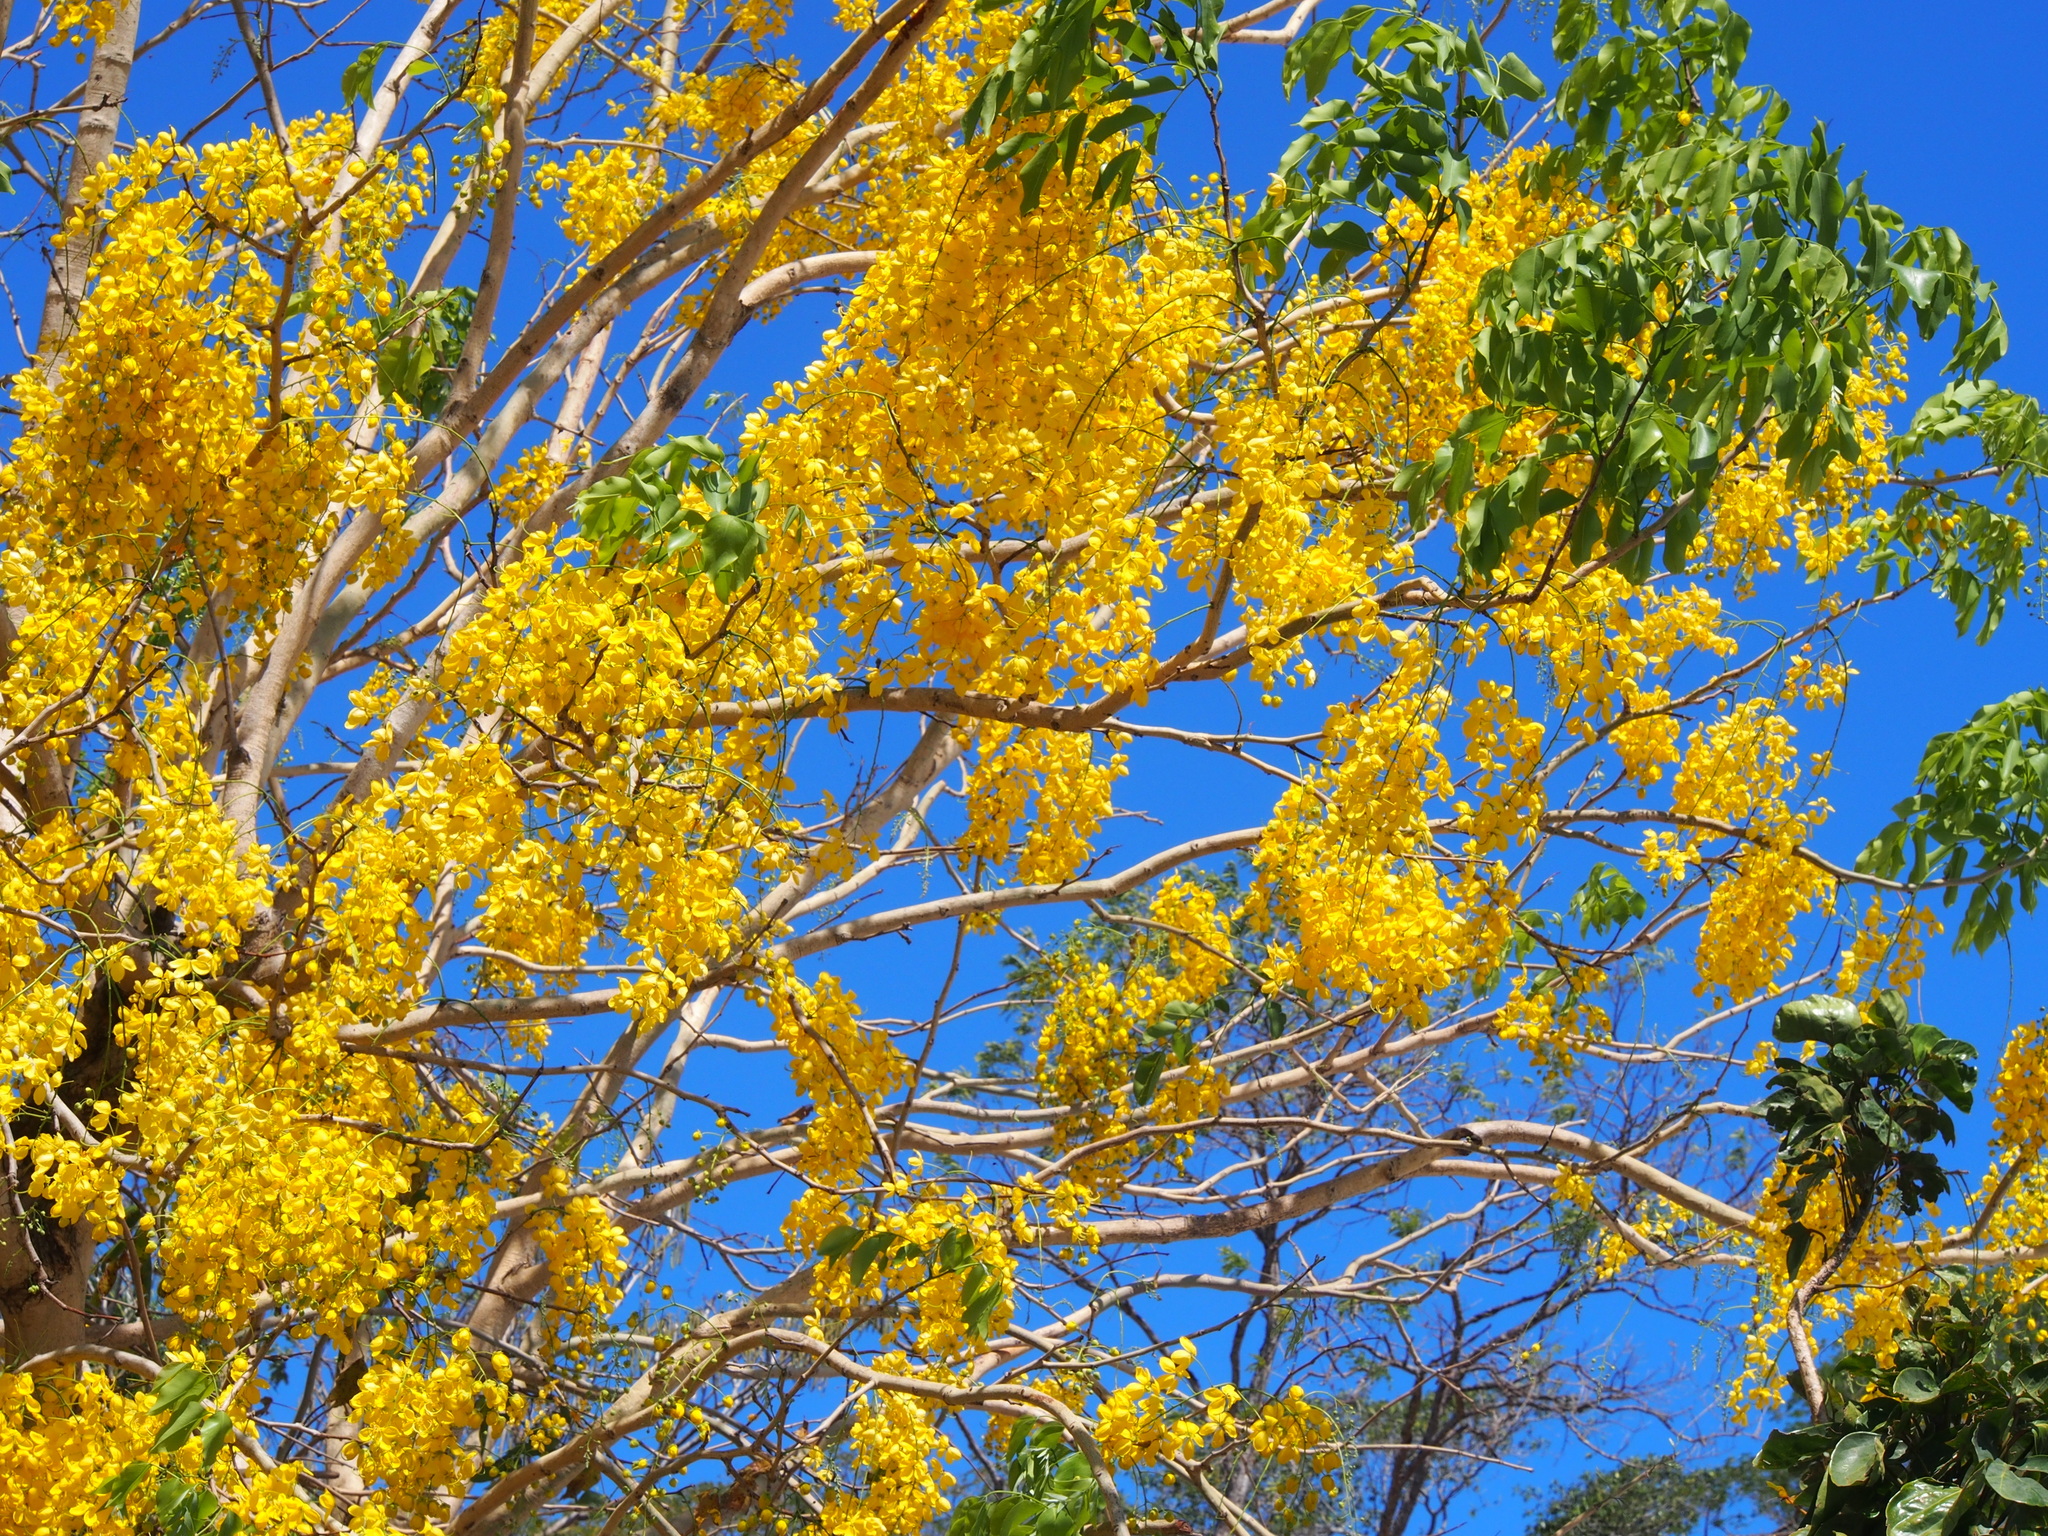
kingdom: Plantae
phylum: Tracheophyta
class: Magnoliopsida
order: Fabales
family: Fabaceae
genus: Cassia
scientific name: Cassia fistula
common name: Golden shower
